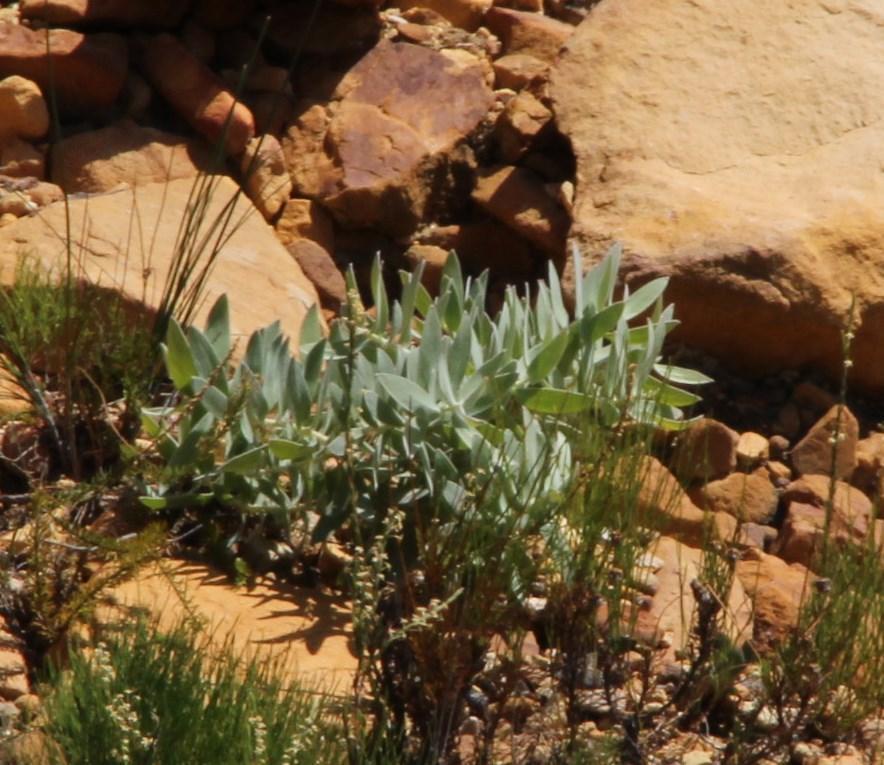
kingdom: Plantae
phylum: Tracheophyta
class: Magnoliopsida
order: Proteales
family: Proteaceae
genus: Leucospermum
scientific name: Leucospermum cordatum
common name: Heart-leaf pincushion
